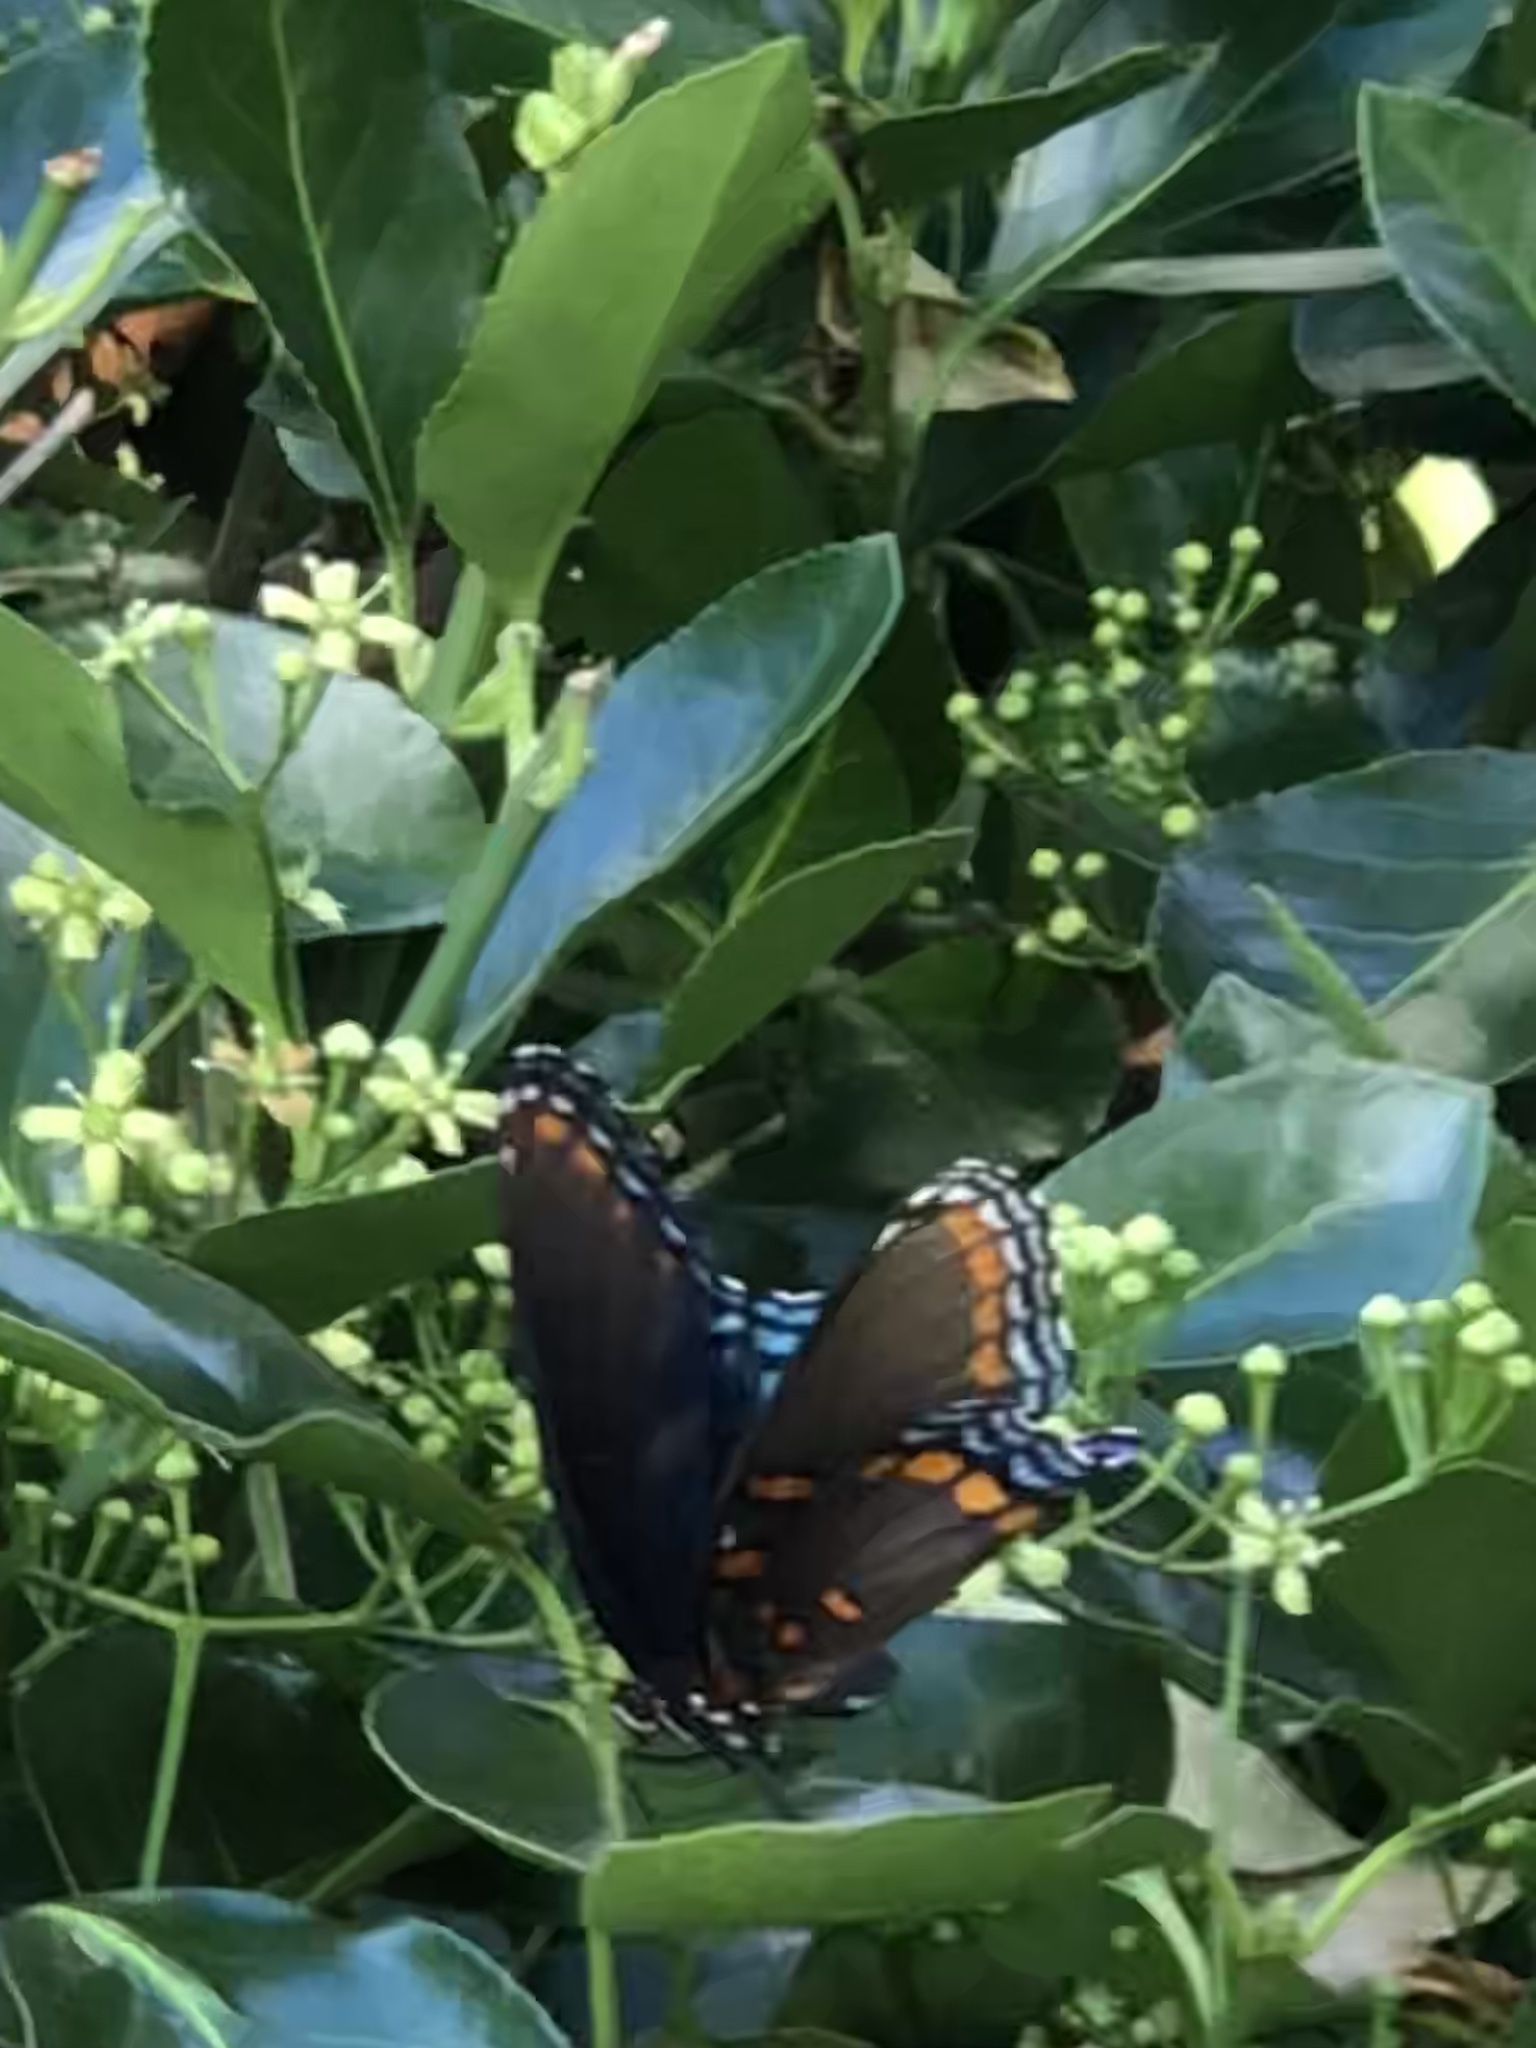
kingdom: Animalia
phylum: Arthropoda
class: Insecta
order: Lepidoptera
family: Nymphalidae
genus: Limenitis
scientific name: Limenitis astyanax
